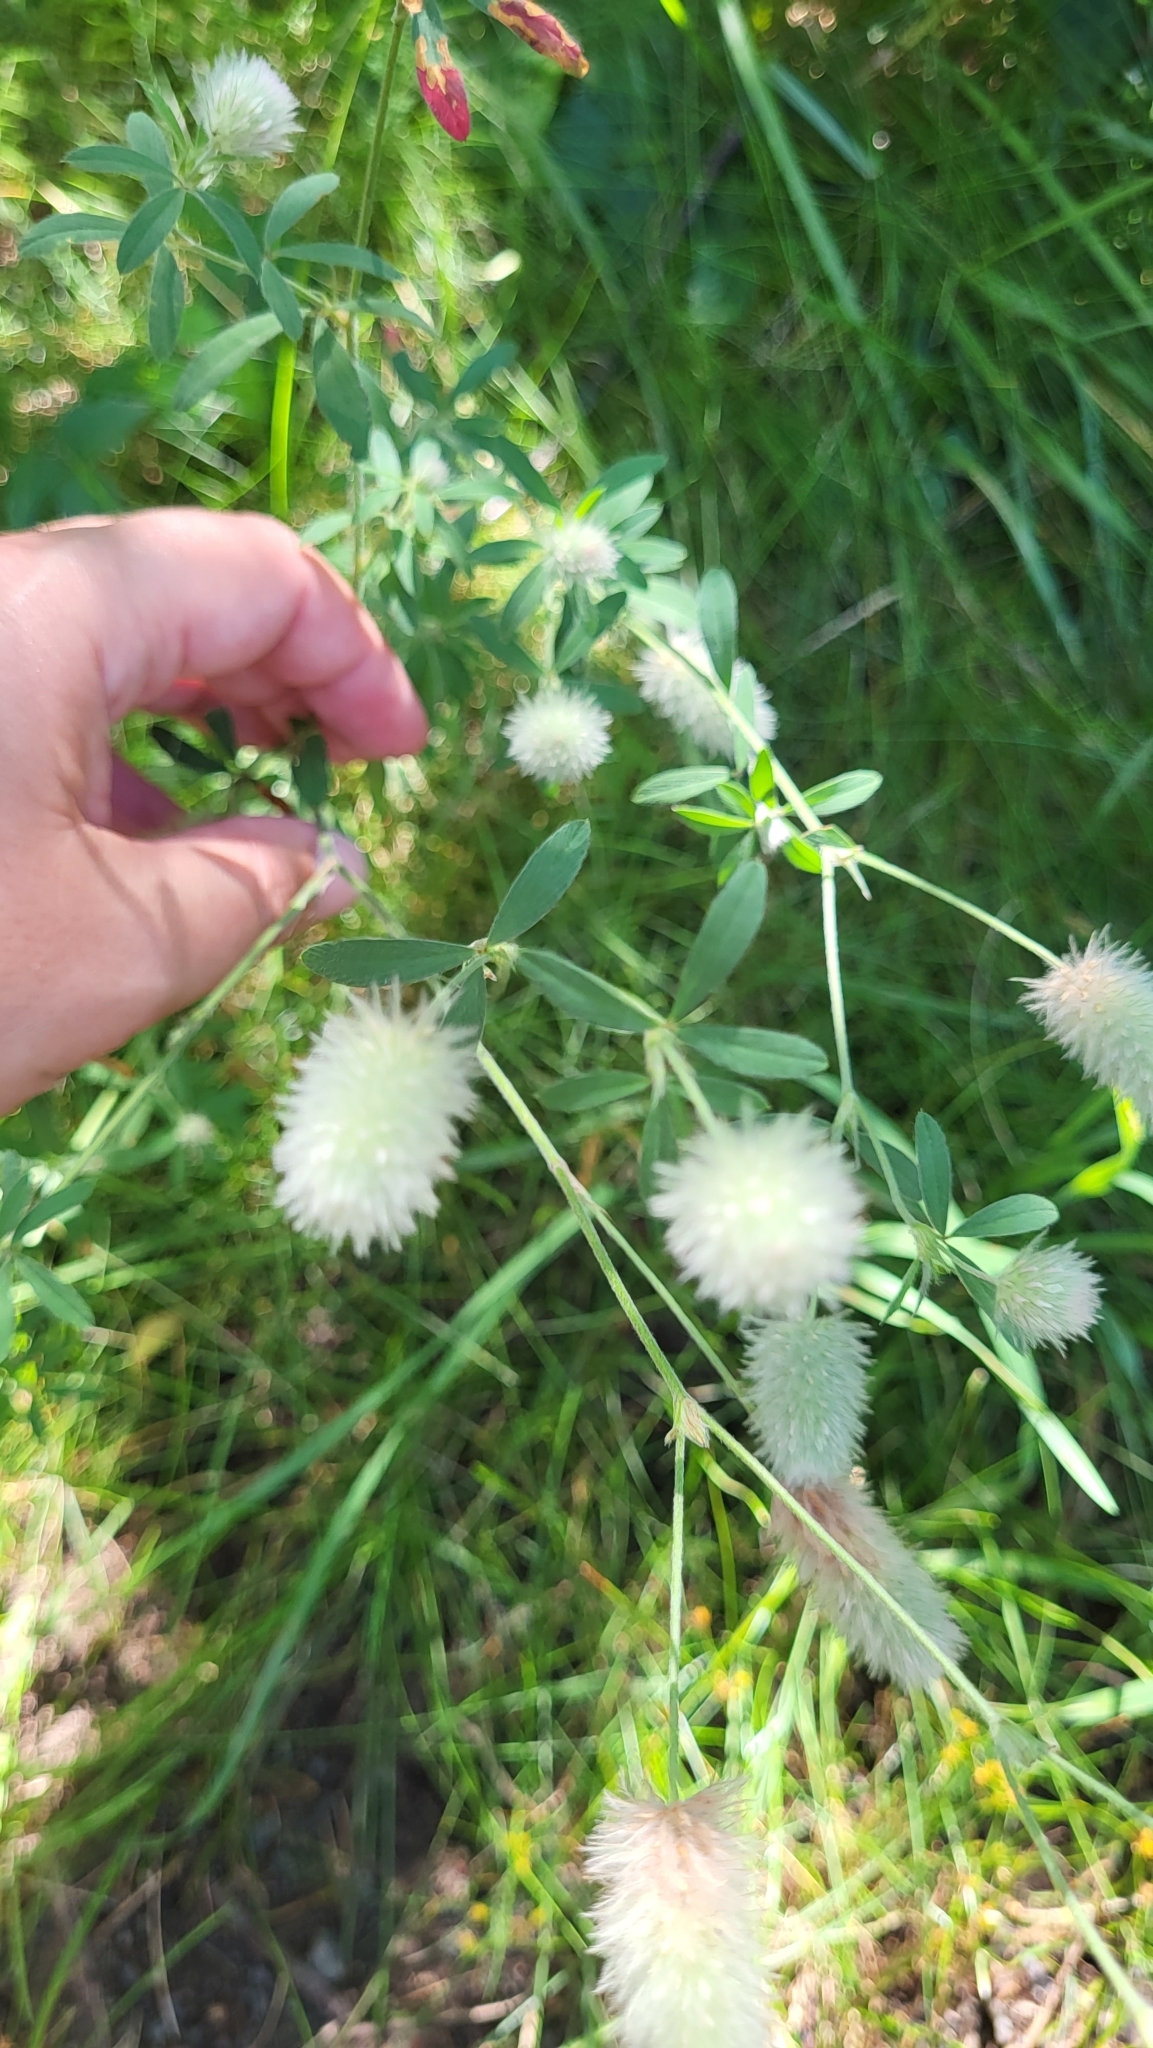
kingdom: Plantae
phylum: Tracheophyta
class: Magnoliopsida
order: Fabales
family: Fabaceae
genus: Trifolium
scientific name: Trifolium arvense
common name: Hare's-foot clover
